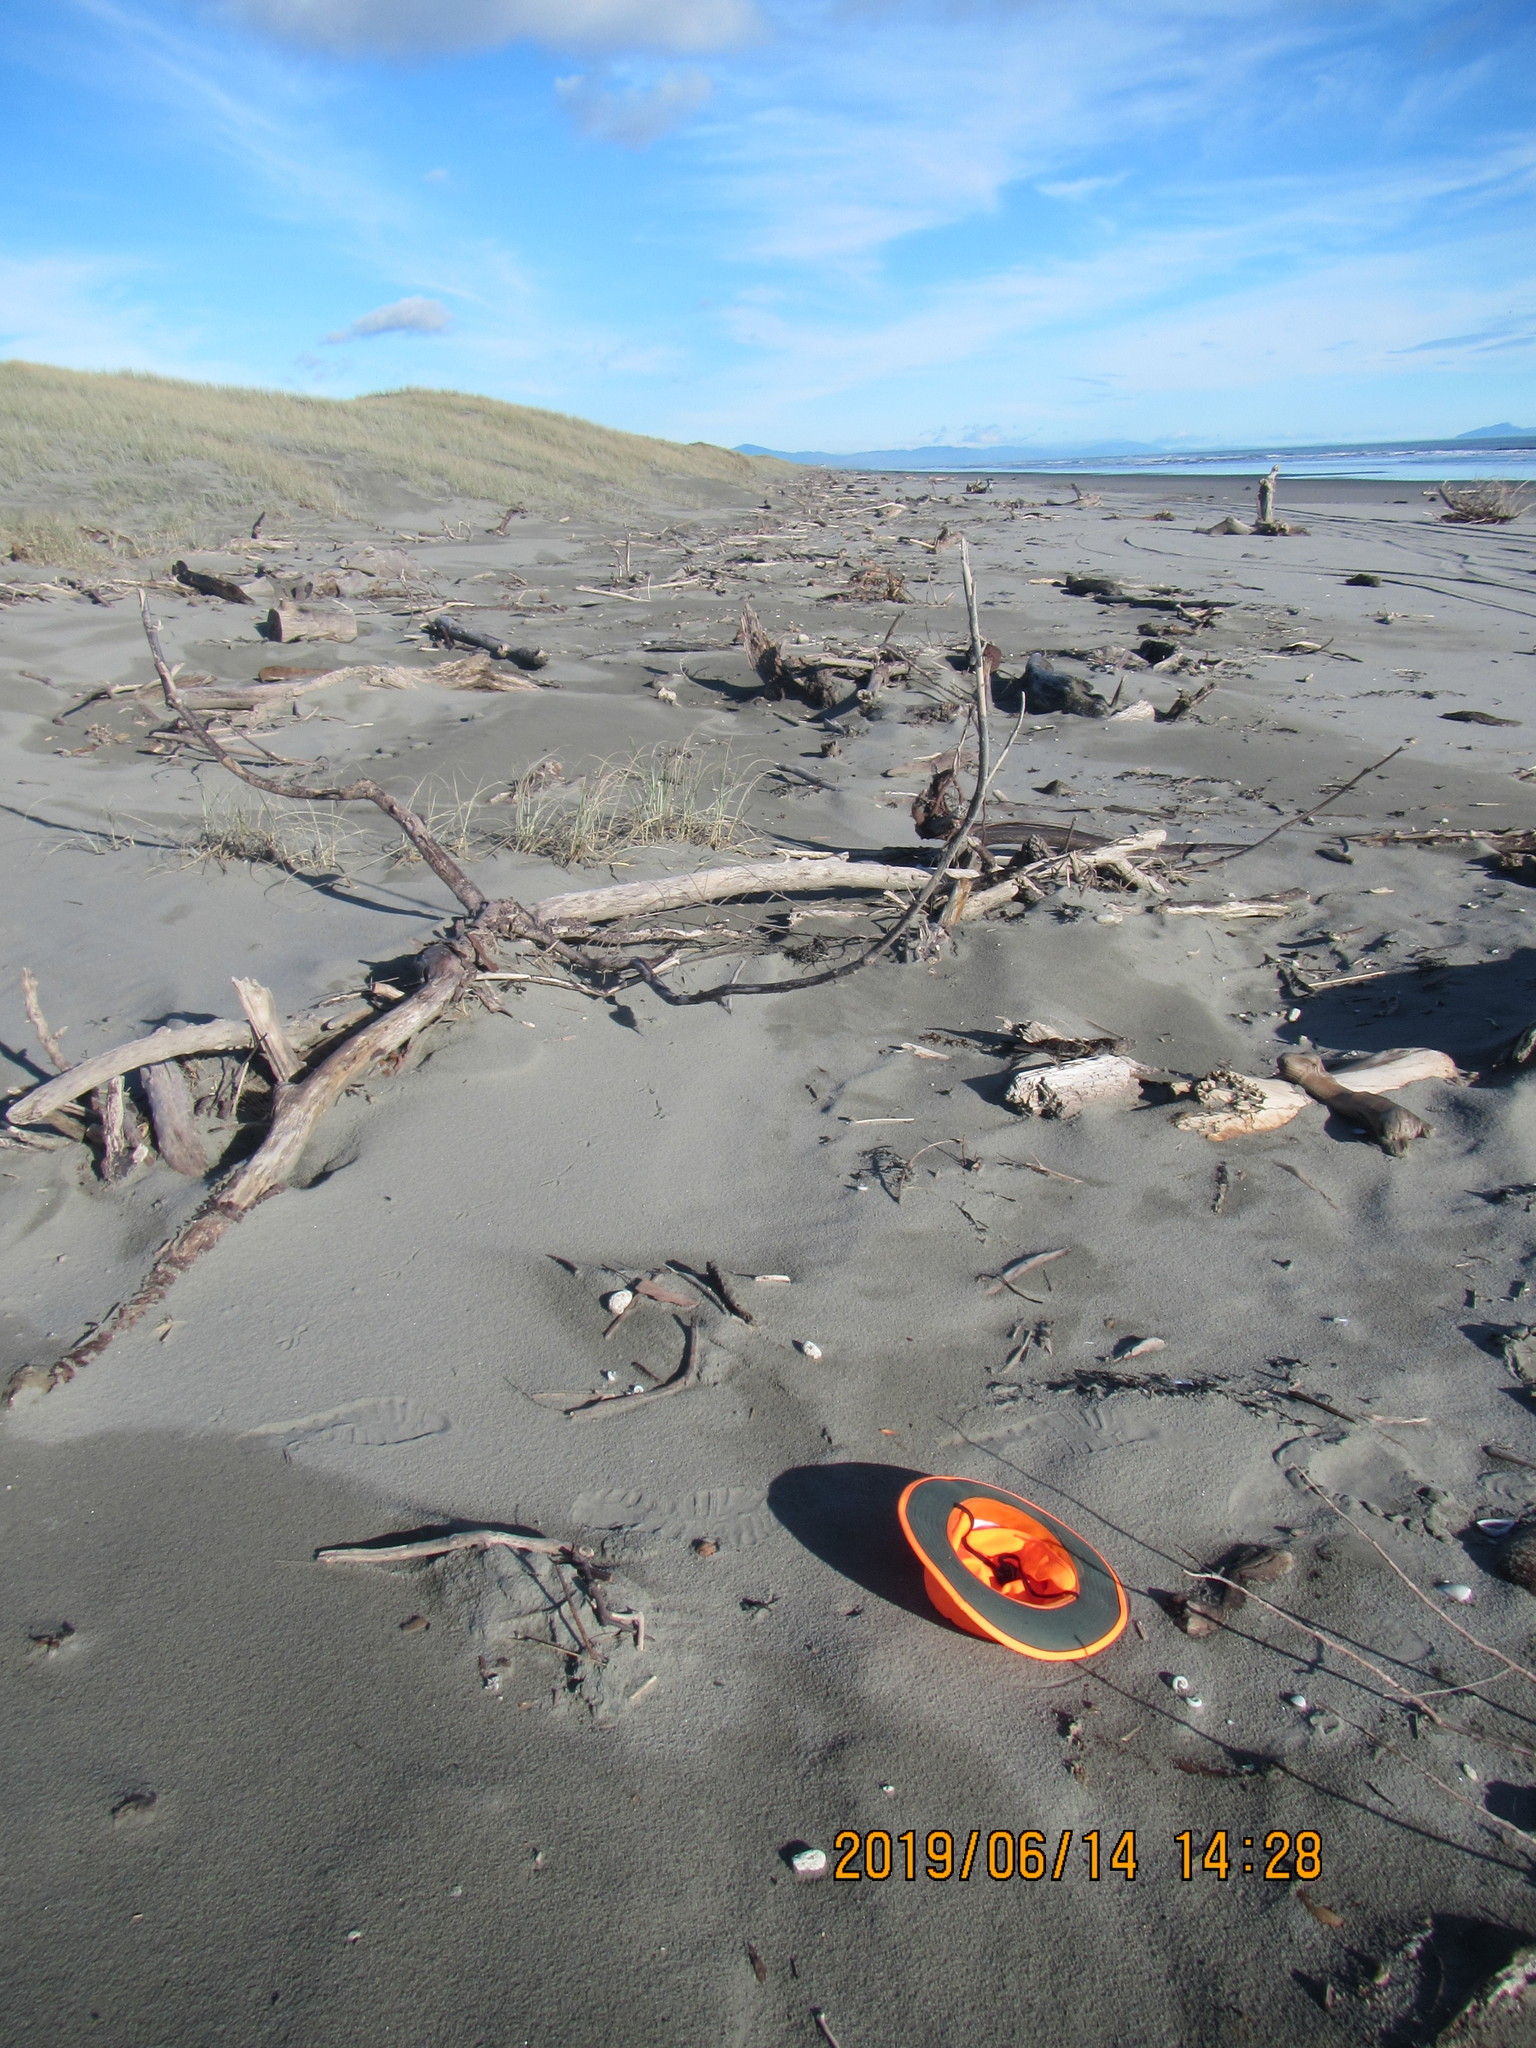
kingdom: Animalia
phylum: Arthropoda
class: Maxillopoda
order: Pedunculata
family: Lepadidae
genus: Lepas
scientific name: Lepas pectinata
